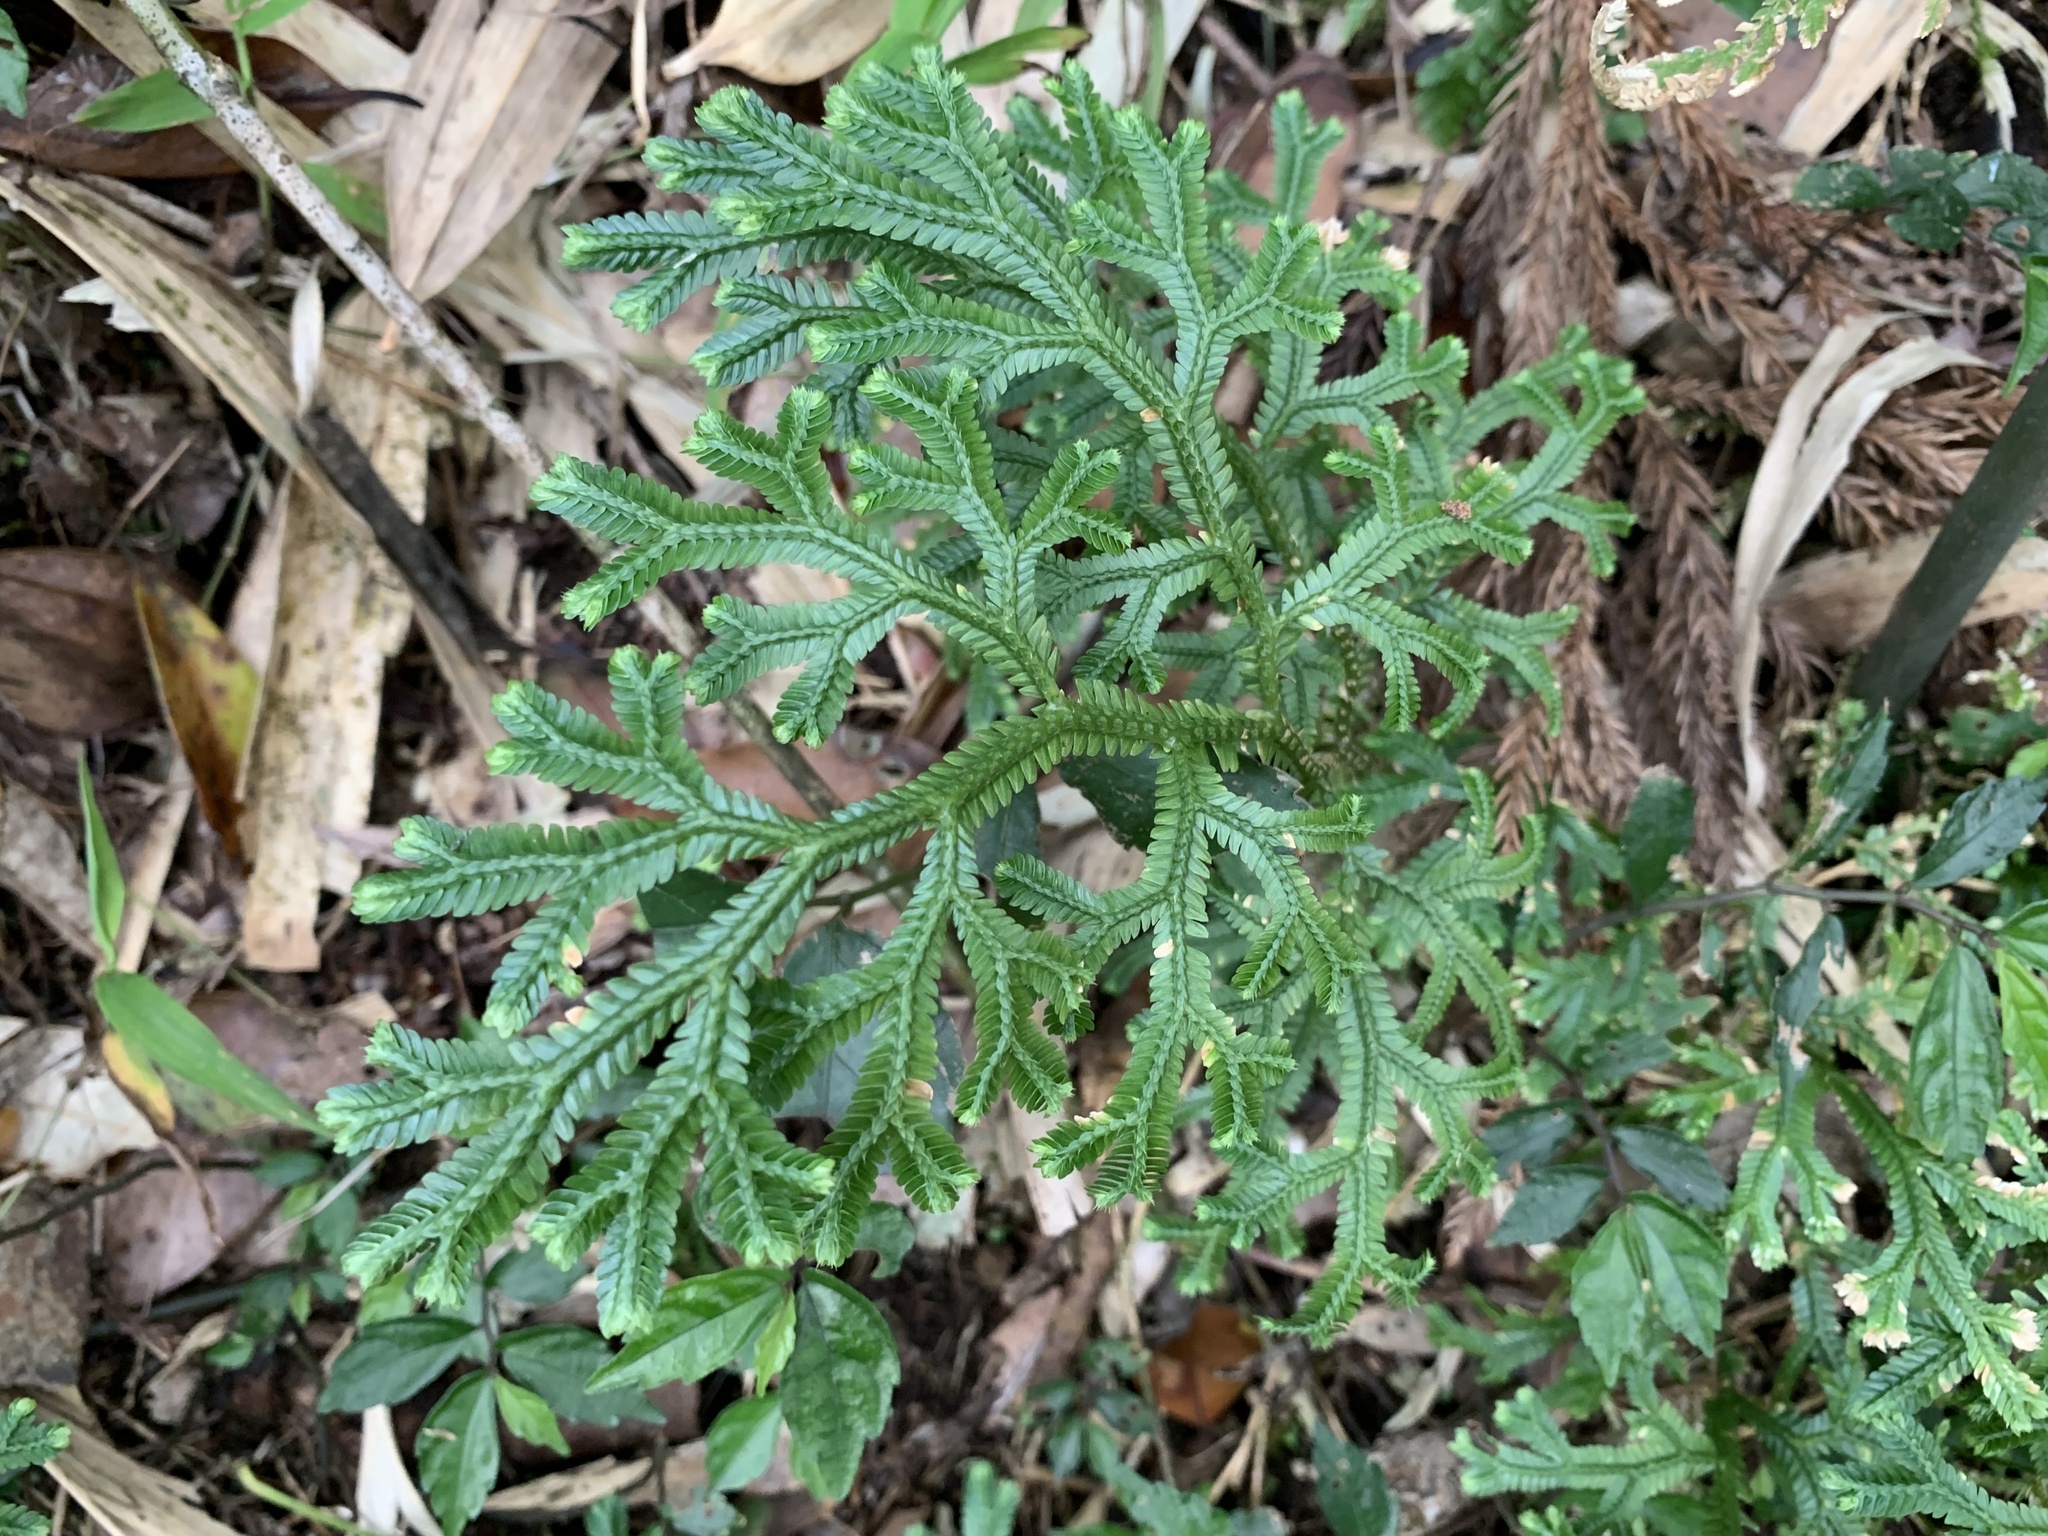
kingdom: Plantae
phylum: Tracheophyta
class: Lycopodiopsida
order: Selaginellales
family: Selaginellaceae
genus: Selaginella
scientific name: Selaginella doederleinii
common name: Greater selaginella
